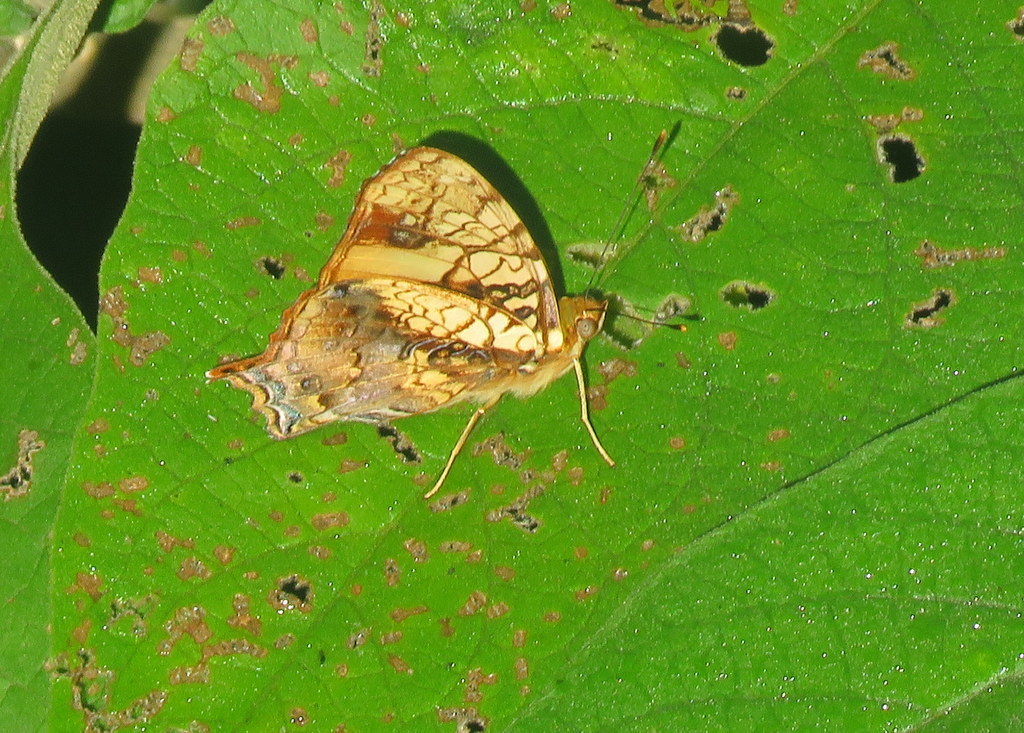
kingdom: Animalia
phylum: Arthropoda
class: Insecta
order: Lepidoptera
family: Nymphalidae
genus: Hypanartia
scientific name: Hypanartia lethe
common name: Orange mapwing
